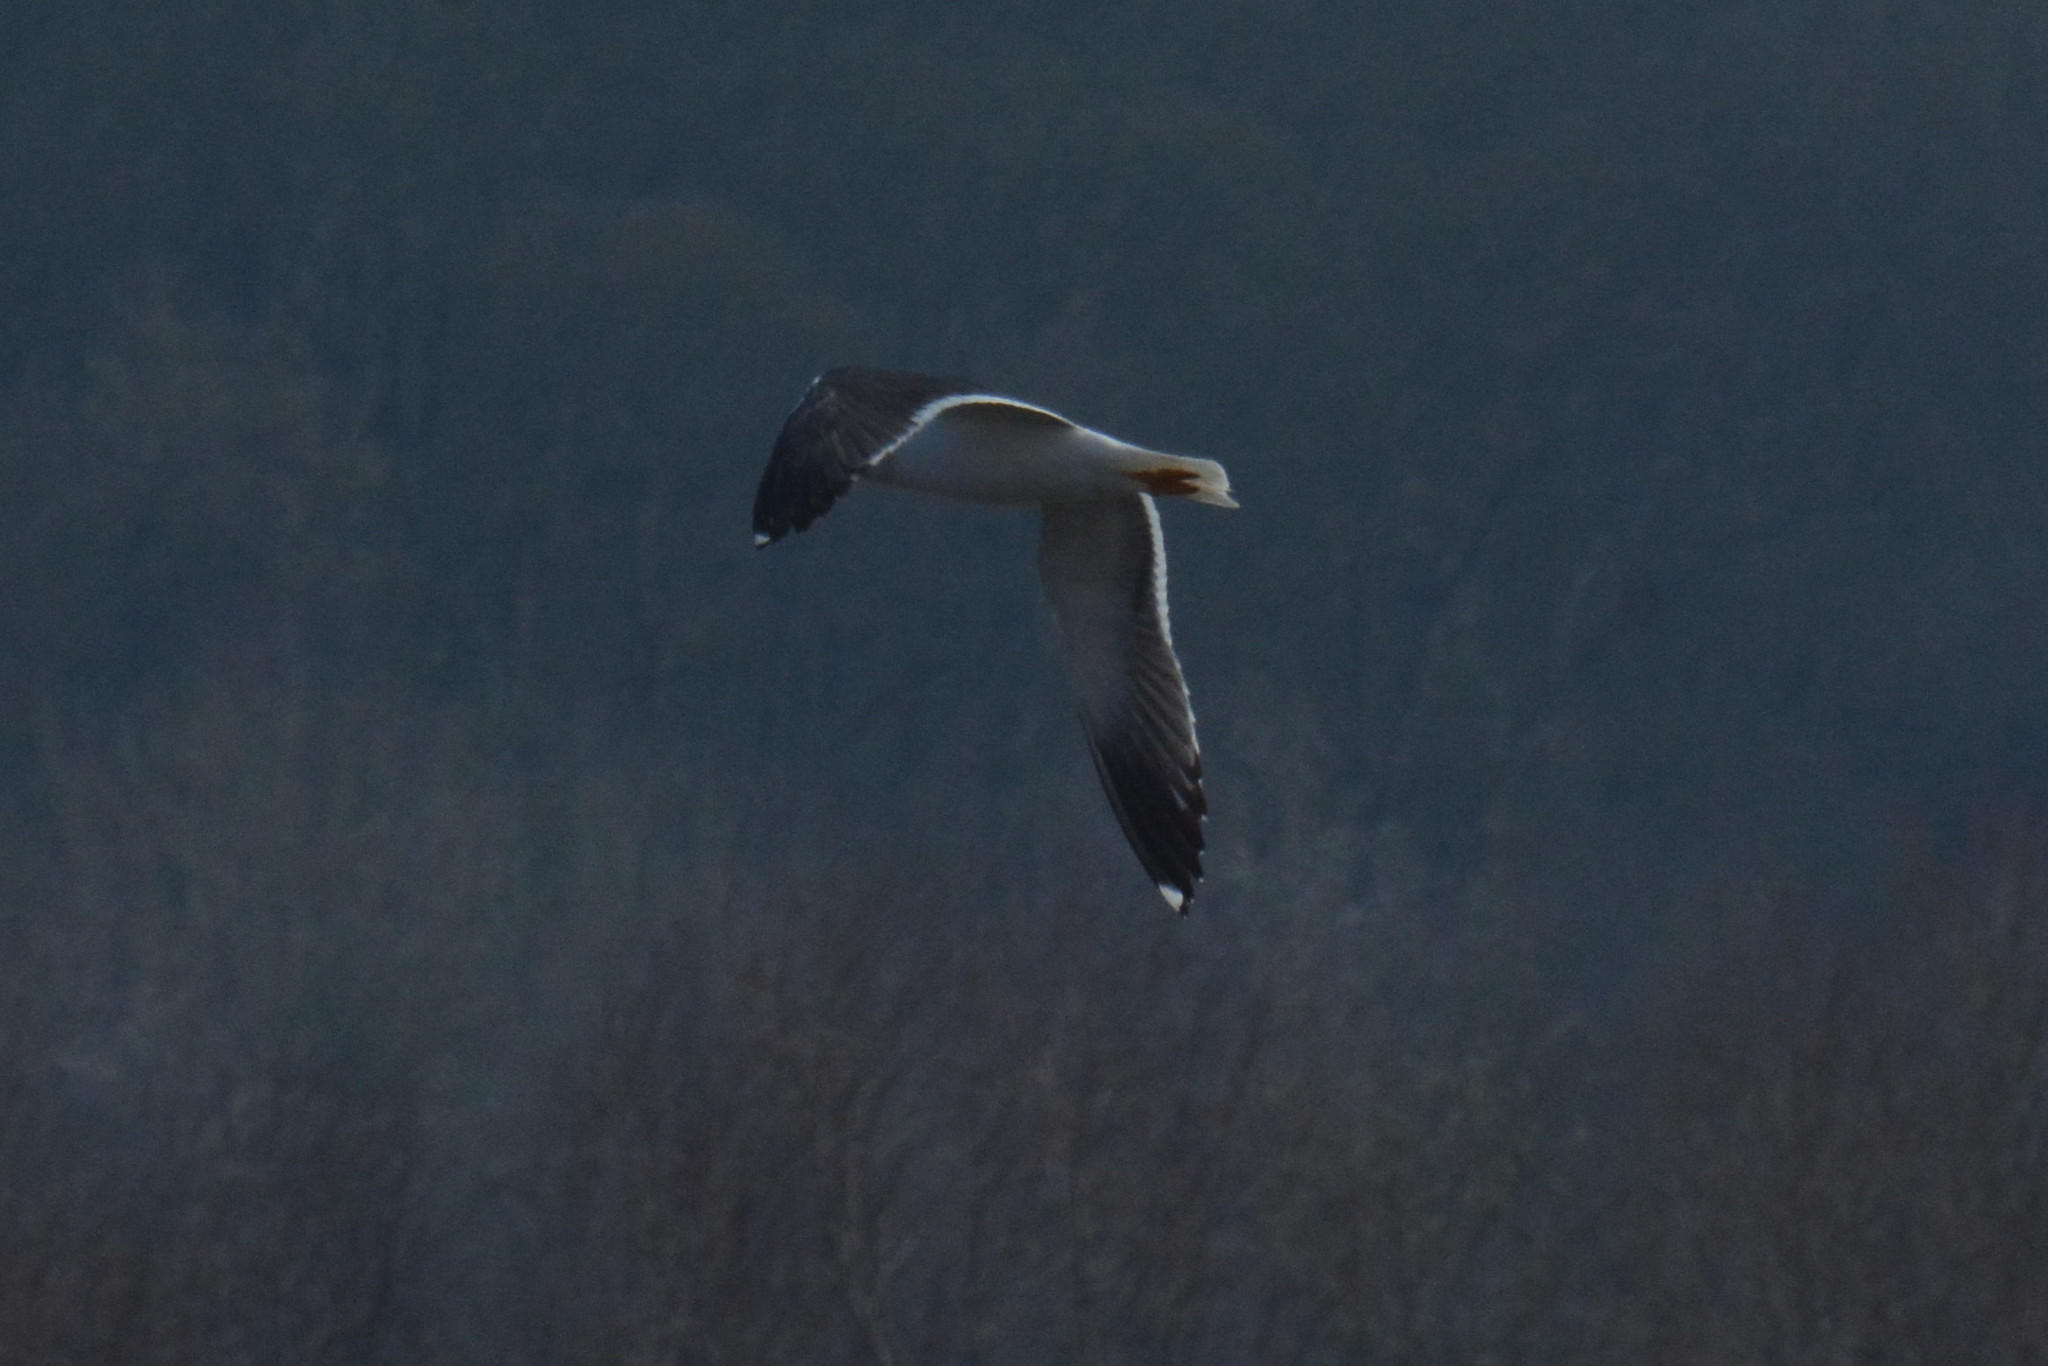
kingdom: Animalia
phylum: Chordata
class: Aves
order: Charadriiformes
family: Laridae
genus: Larus
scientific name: Larus fuscus
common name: Lesser black-backed gull
